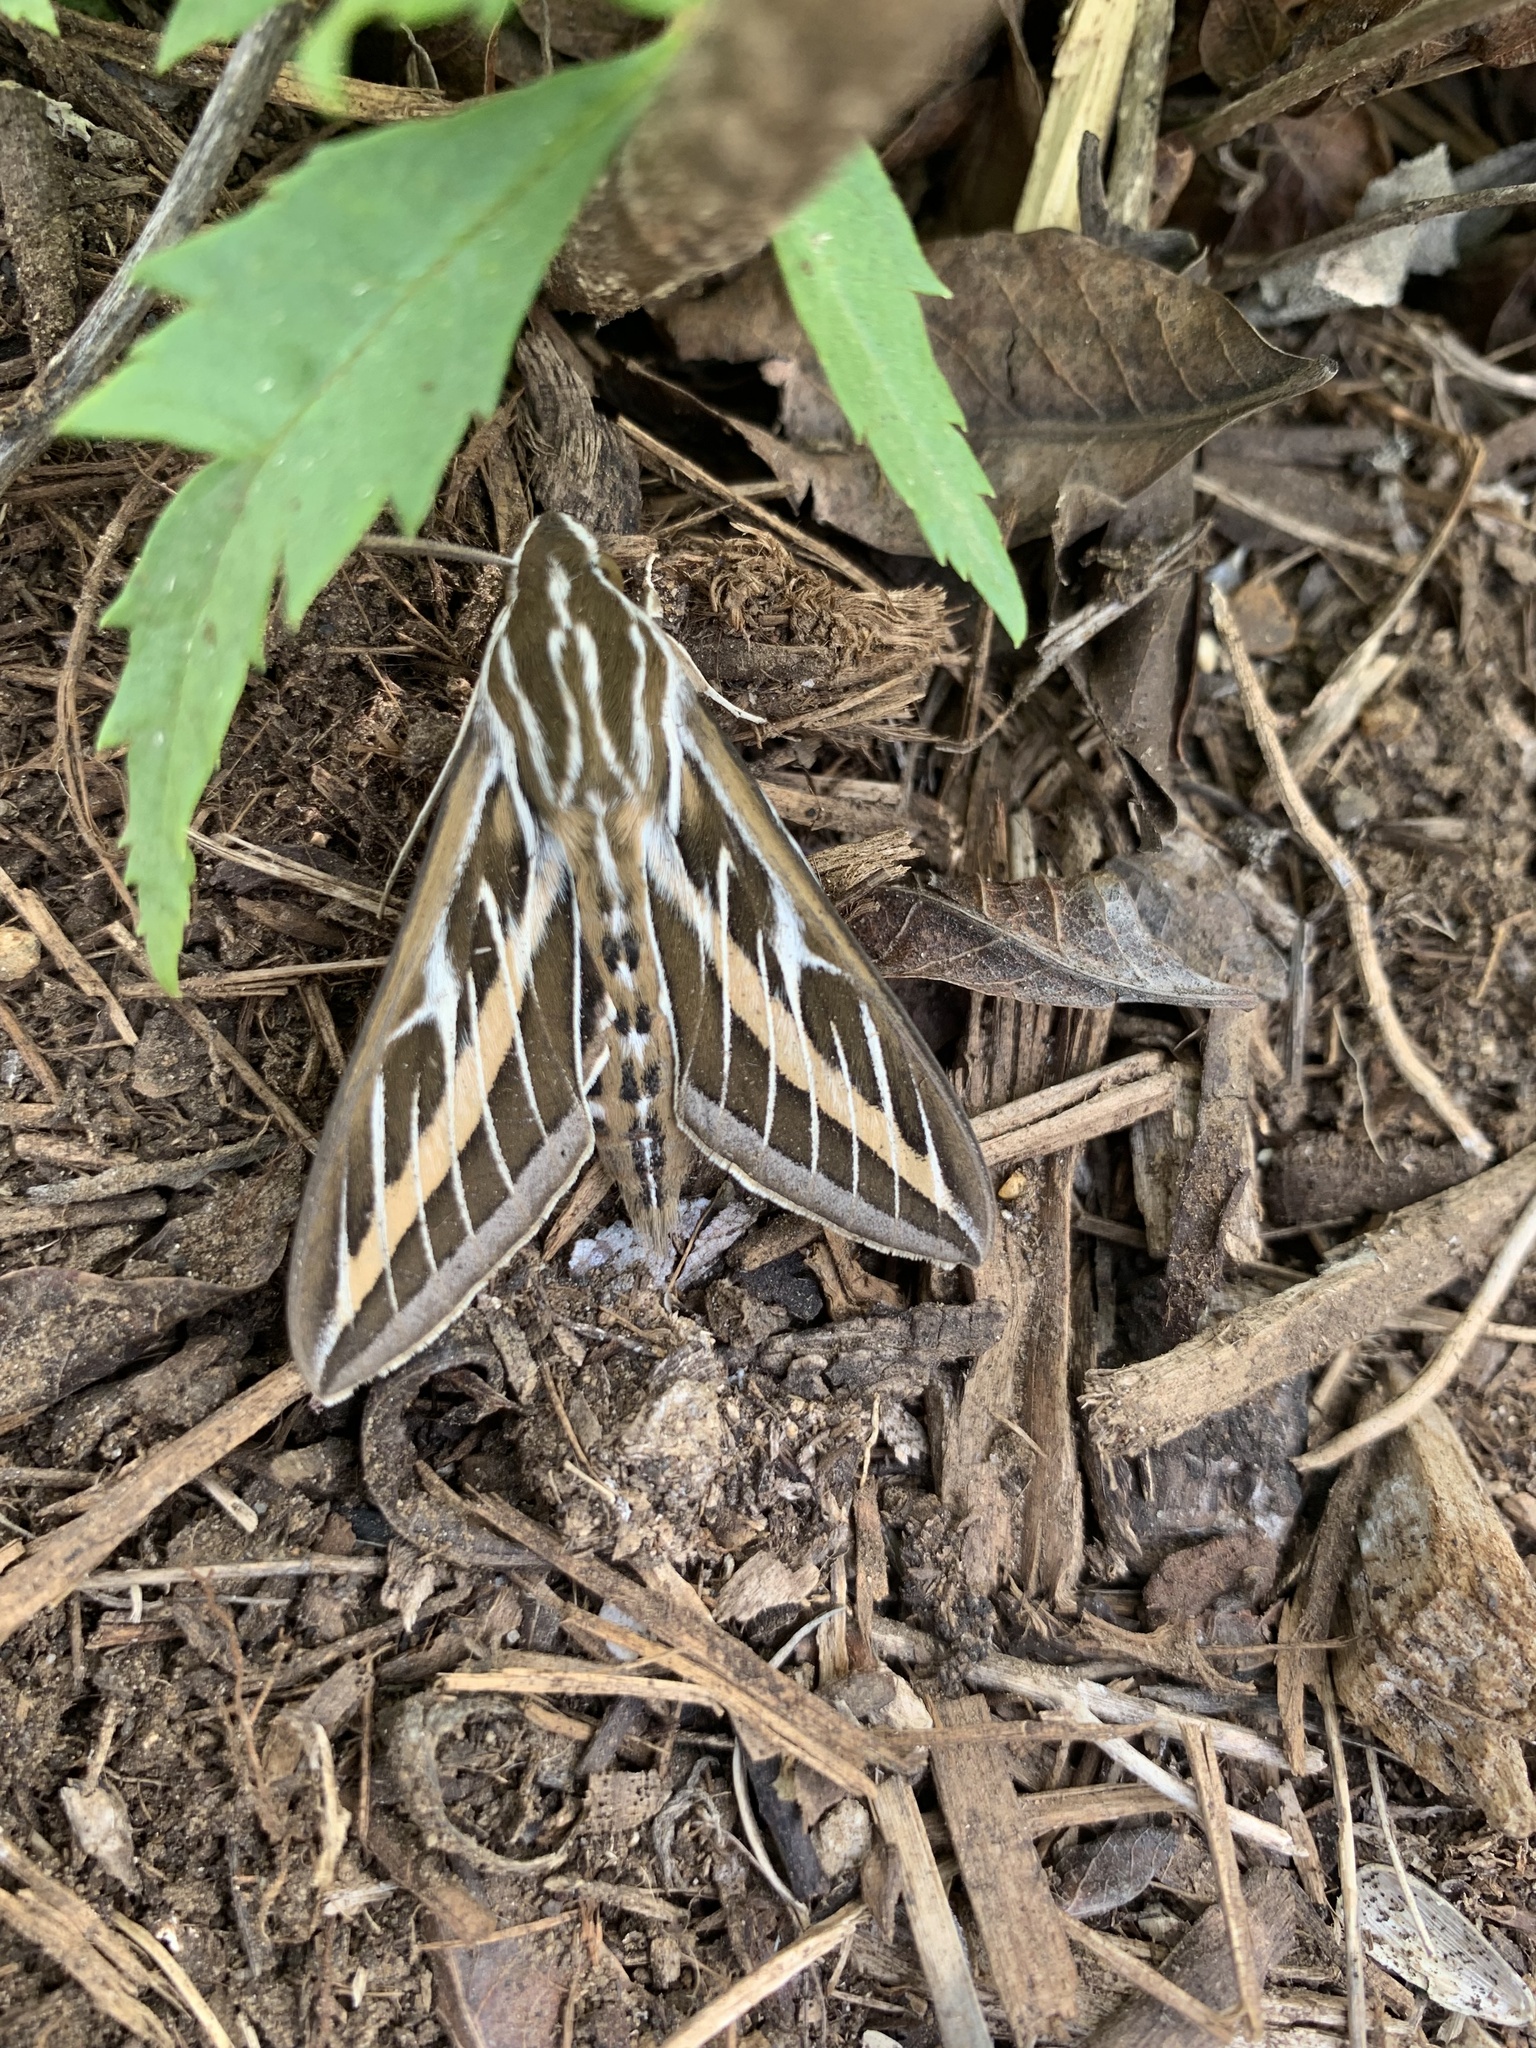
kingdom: Animalia
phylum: Arthropoda
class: Insecta
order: Lepidoptera
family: Sphingidae
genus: Hyles
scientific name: Hyles lineata
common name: White-lined sphinx
